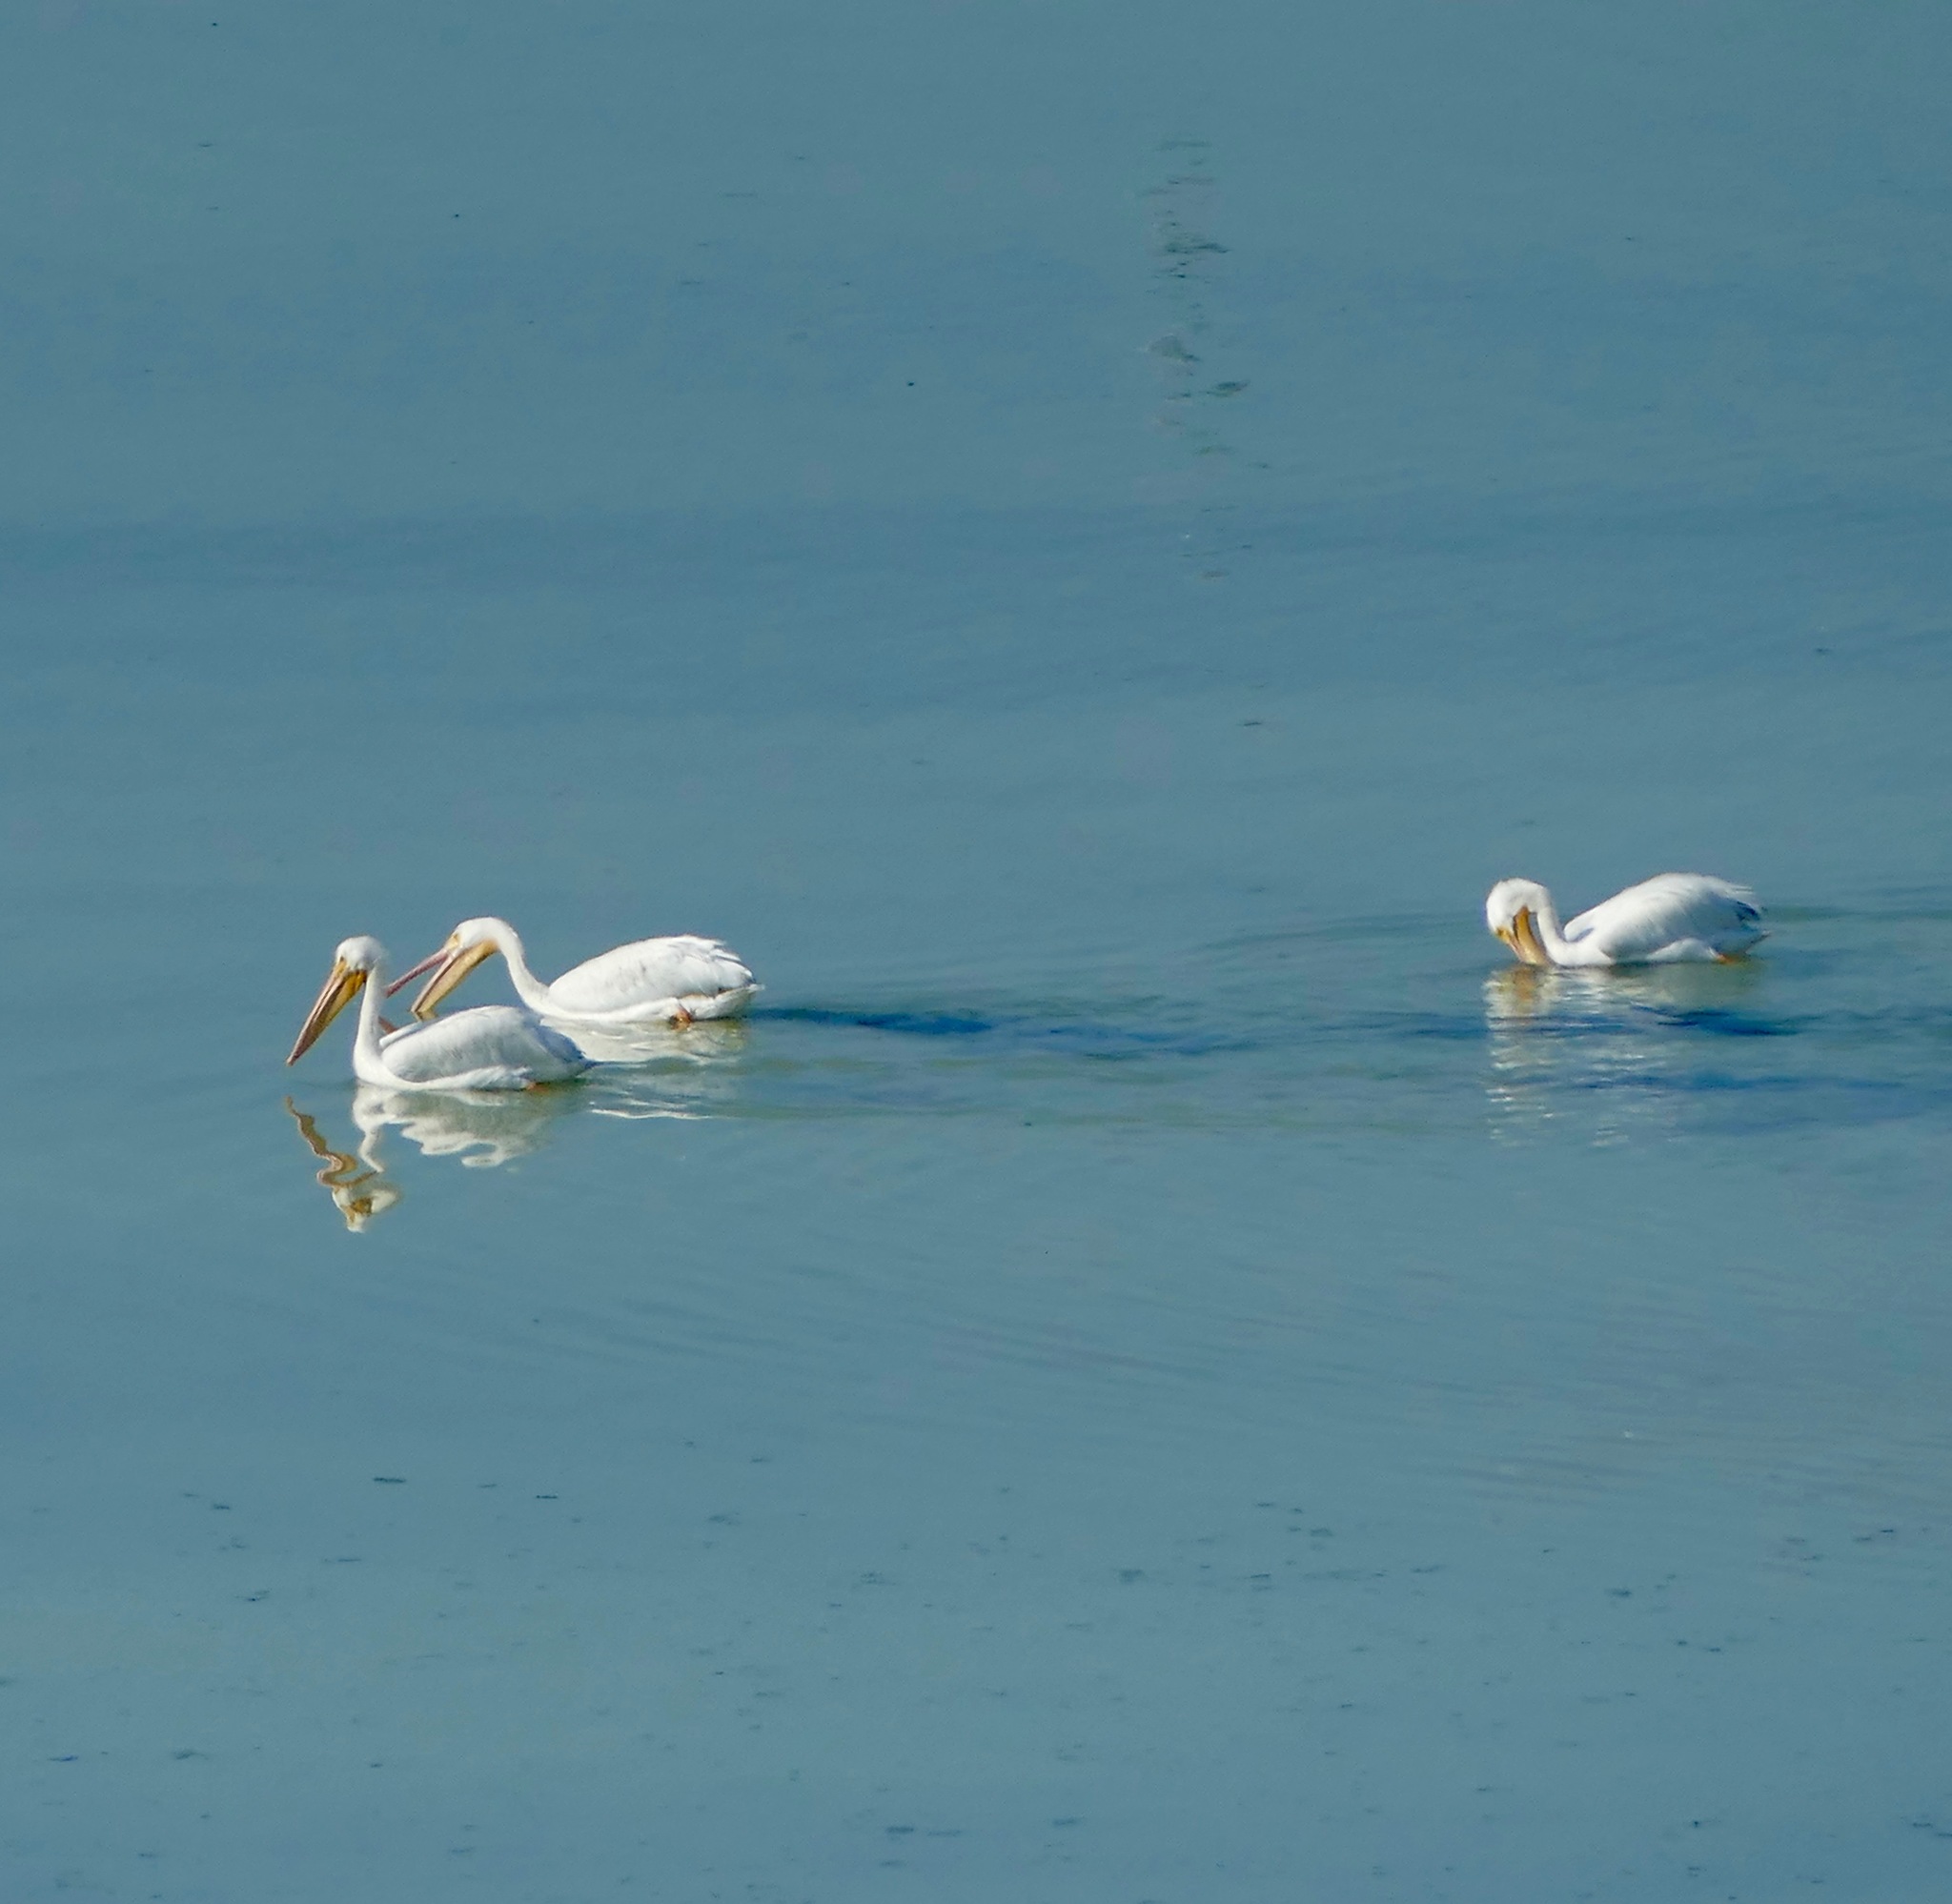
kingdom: Animalia
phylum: Chordata
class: Aves
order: Pelecaniformes
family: Pelecanidae
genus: Pelecanus
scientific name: Pelecanus erythrorhynchos
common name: American white pelican
